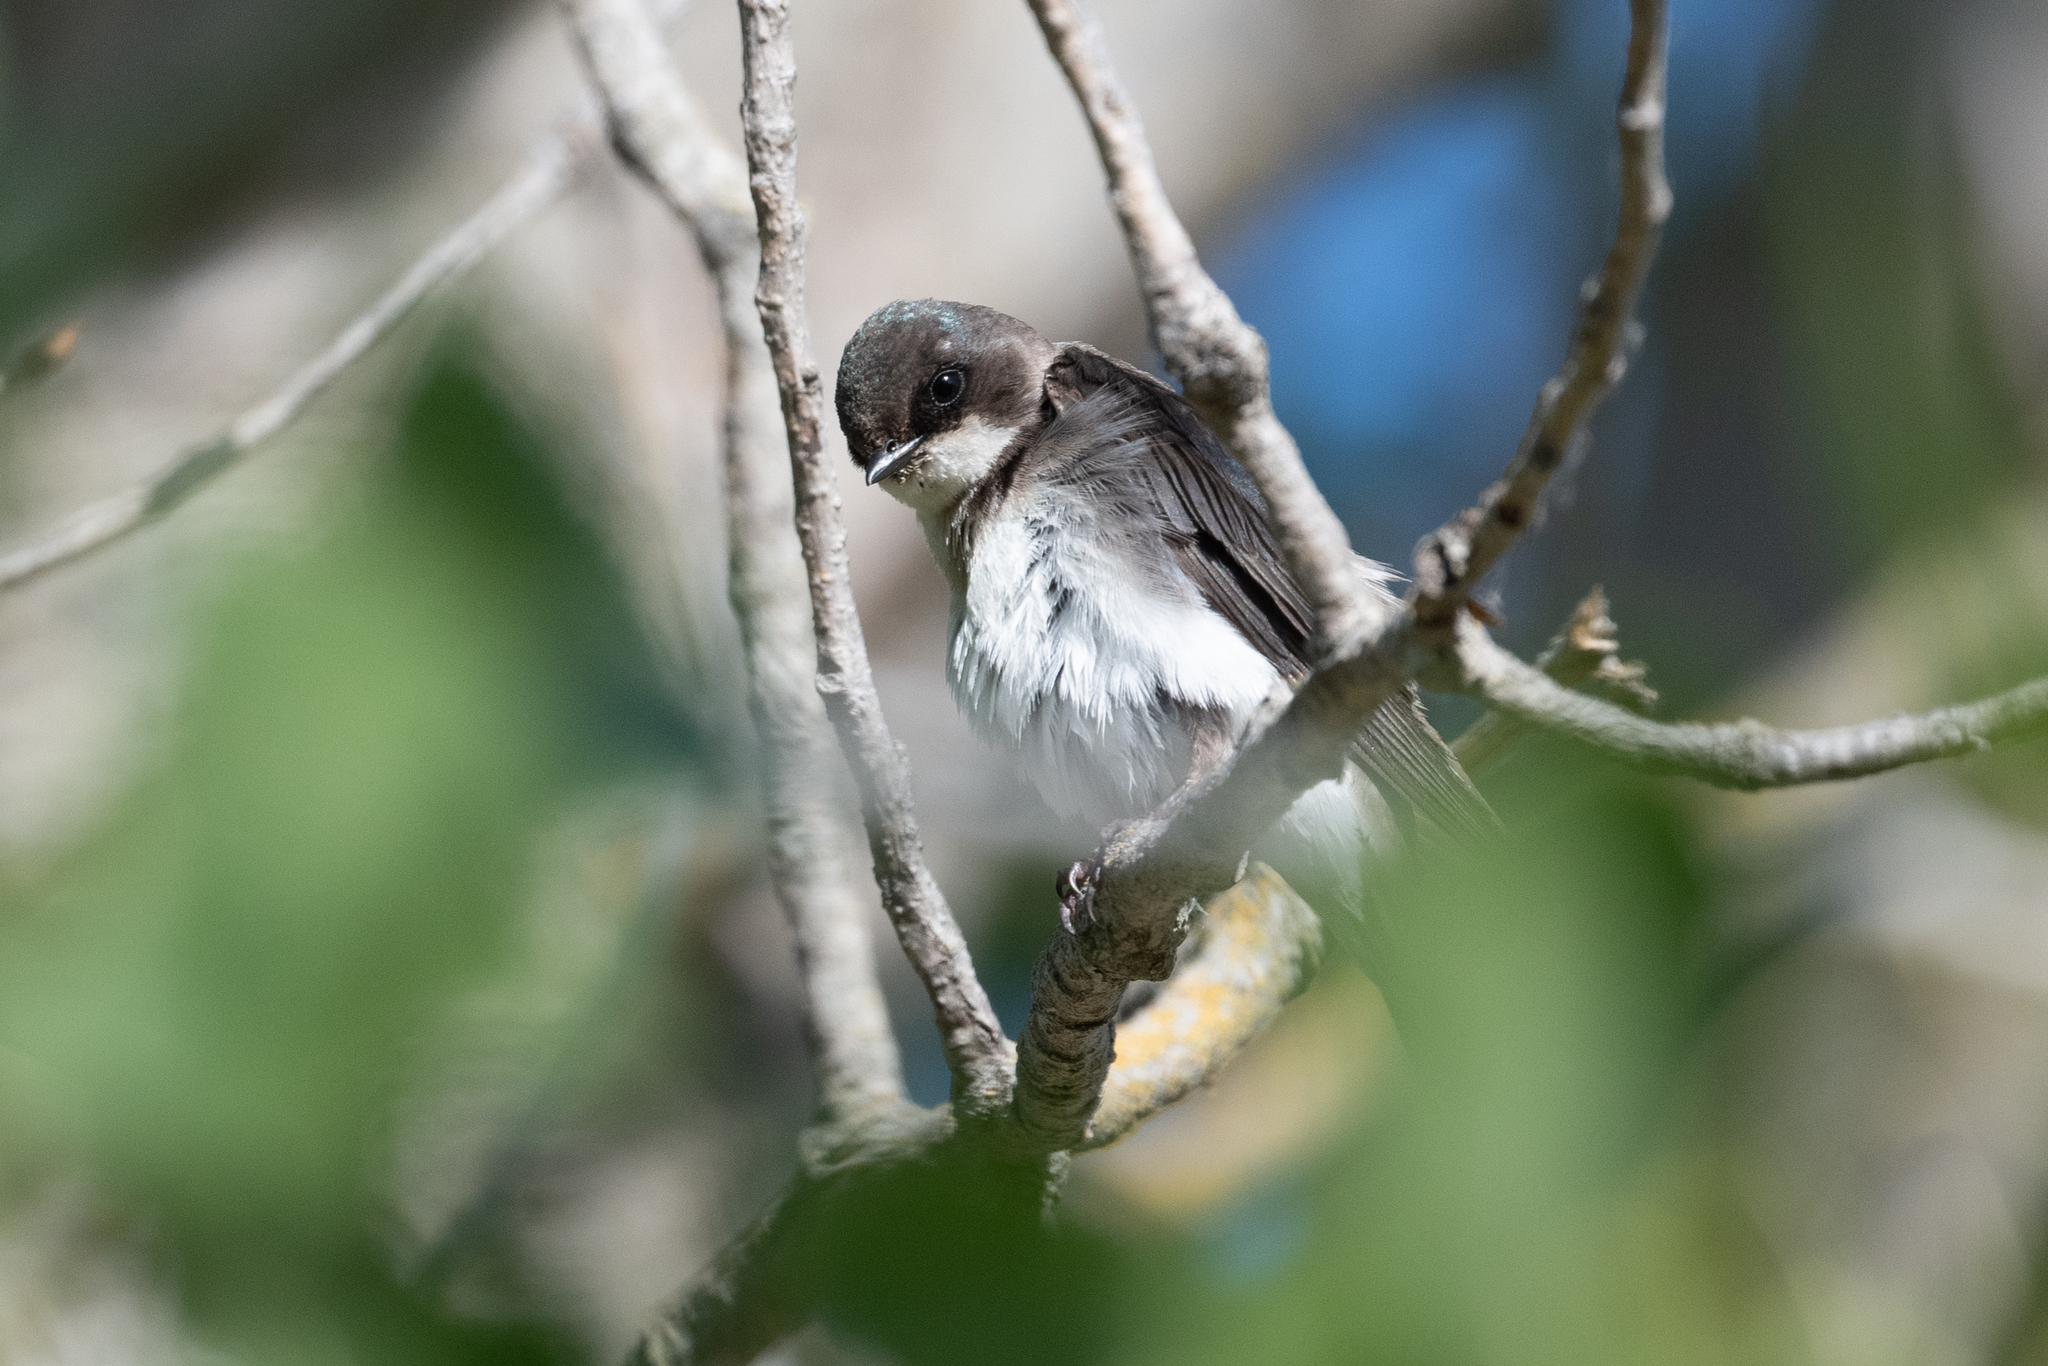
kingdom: Animalia
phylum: Chordata
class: Aves
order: Passeriformes
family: Hirundinidae
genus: Tachycineta
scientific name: Tachycineta bicolor
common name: Tree swallow
